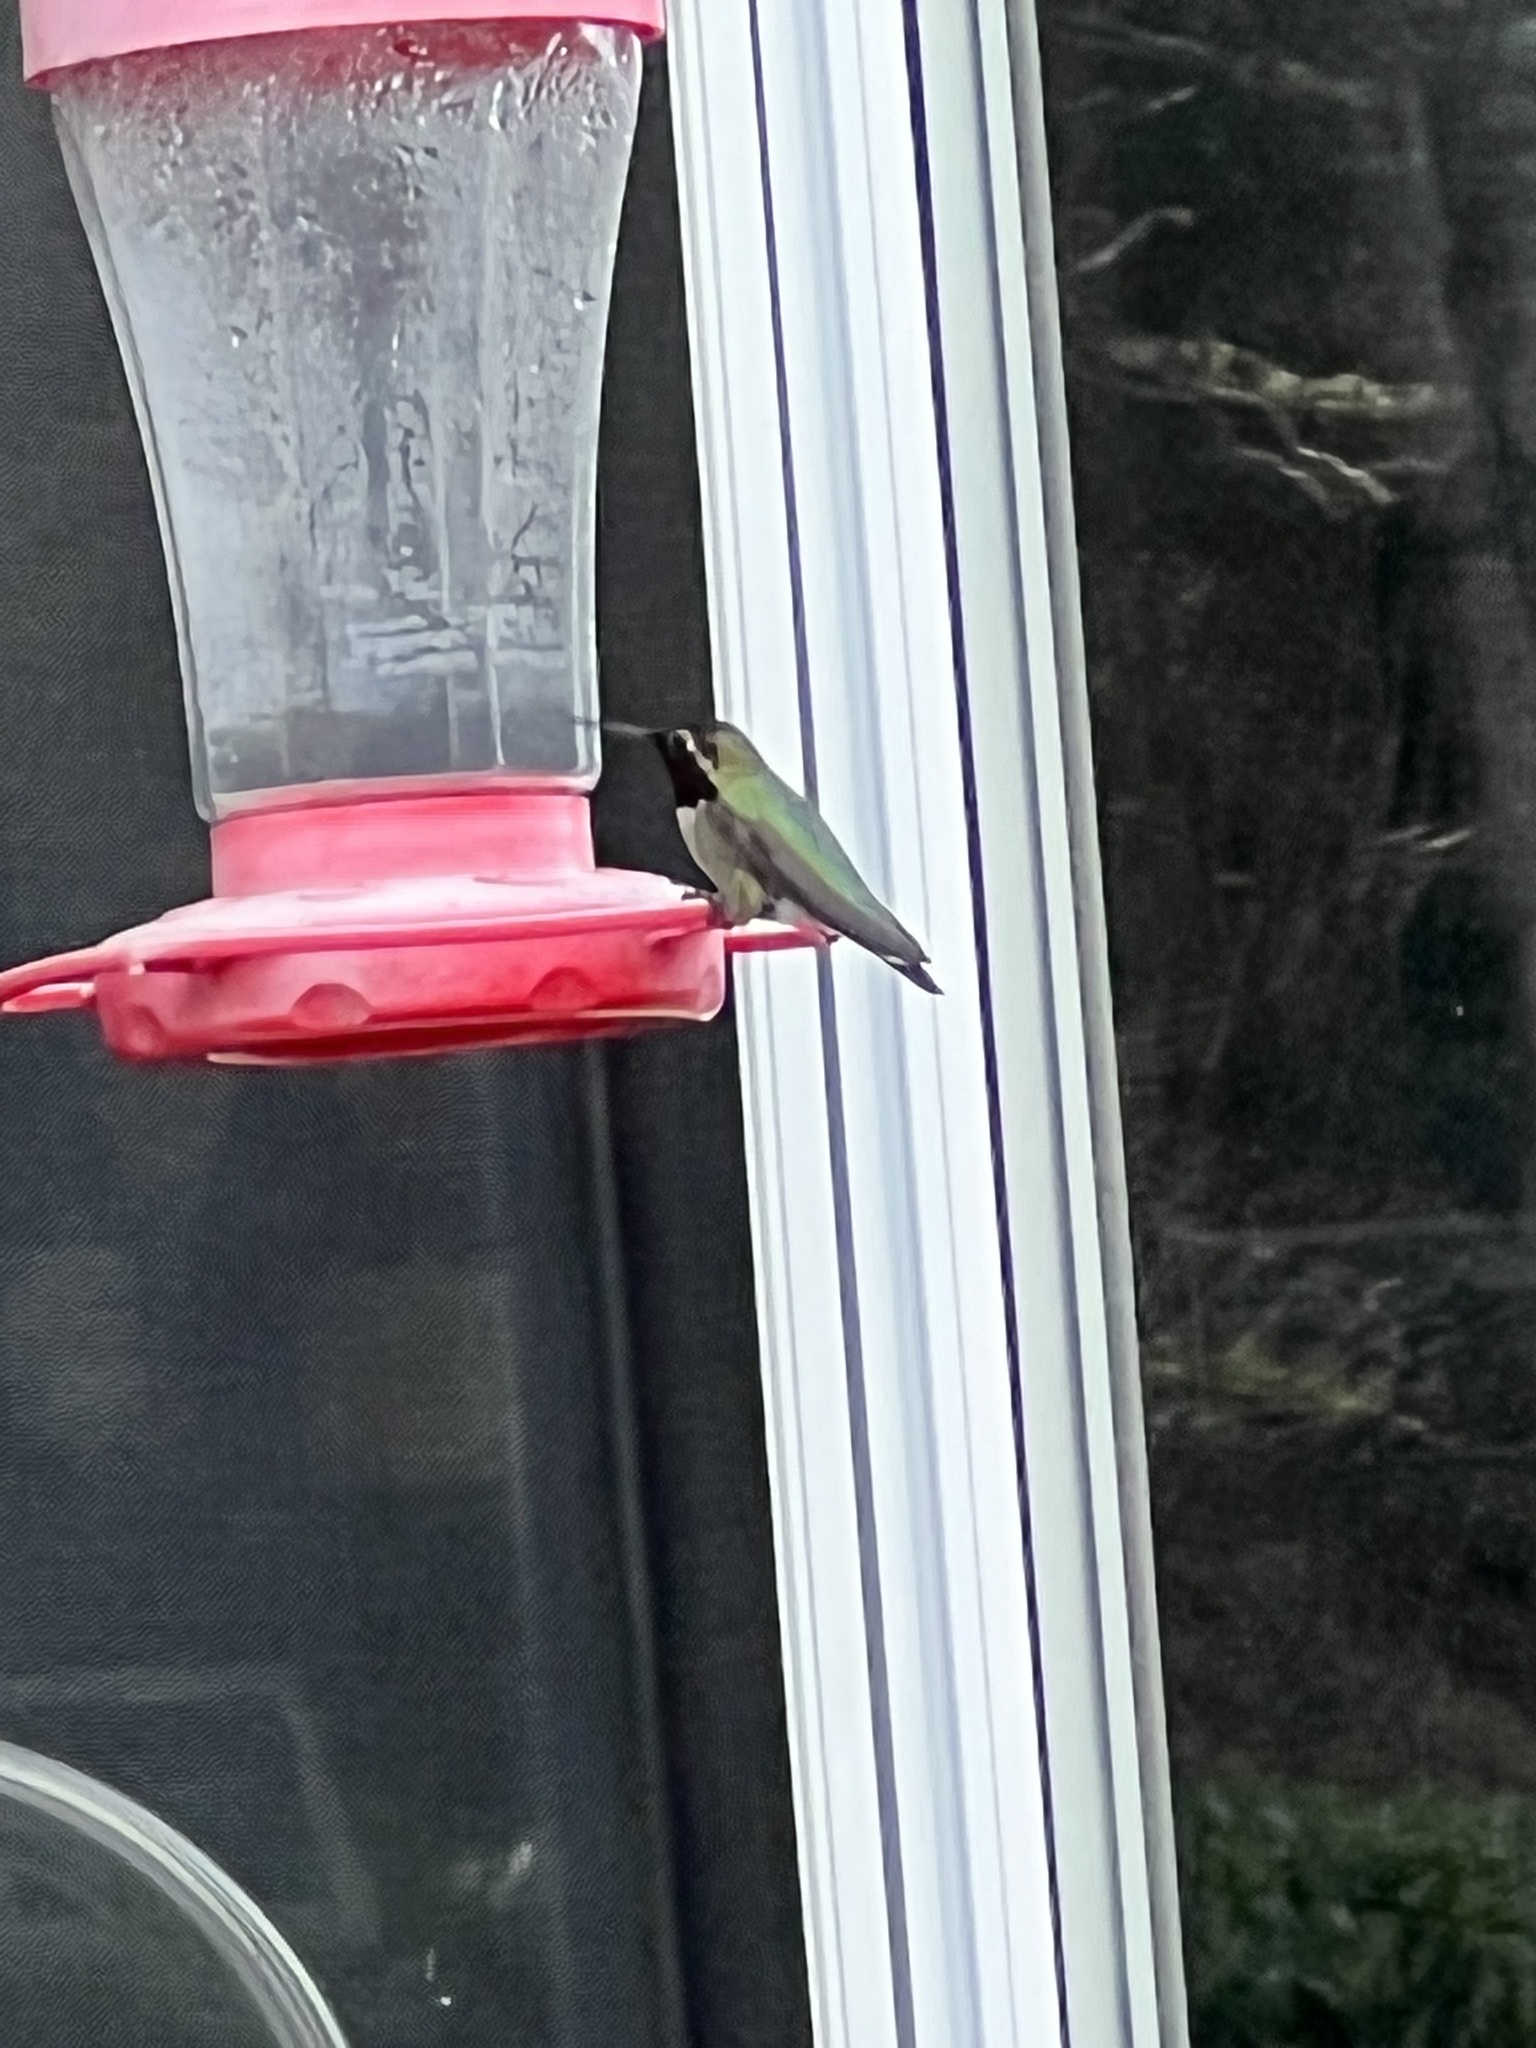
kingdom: Animalia
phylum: Chordata
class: Aves
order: Apodiformes
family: Trochilidae
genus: Calypte
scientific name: Calypte anna
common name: Anna's hummingbird
